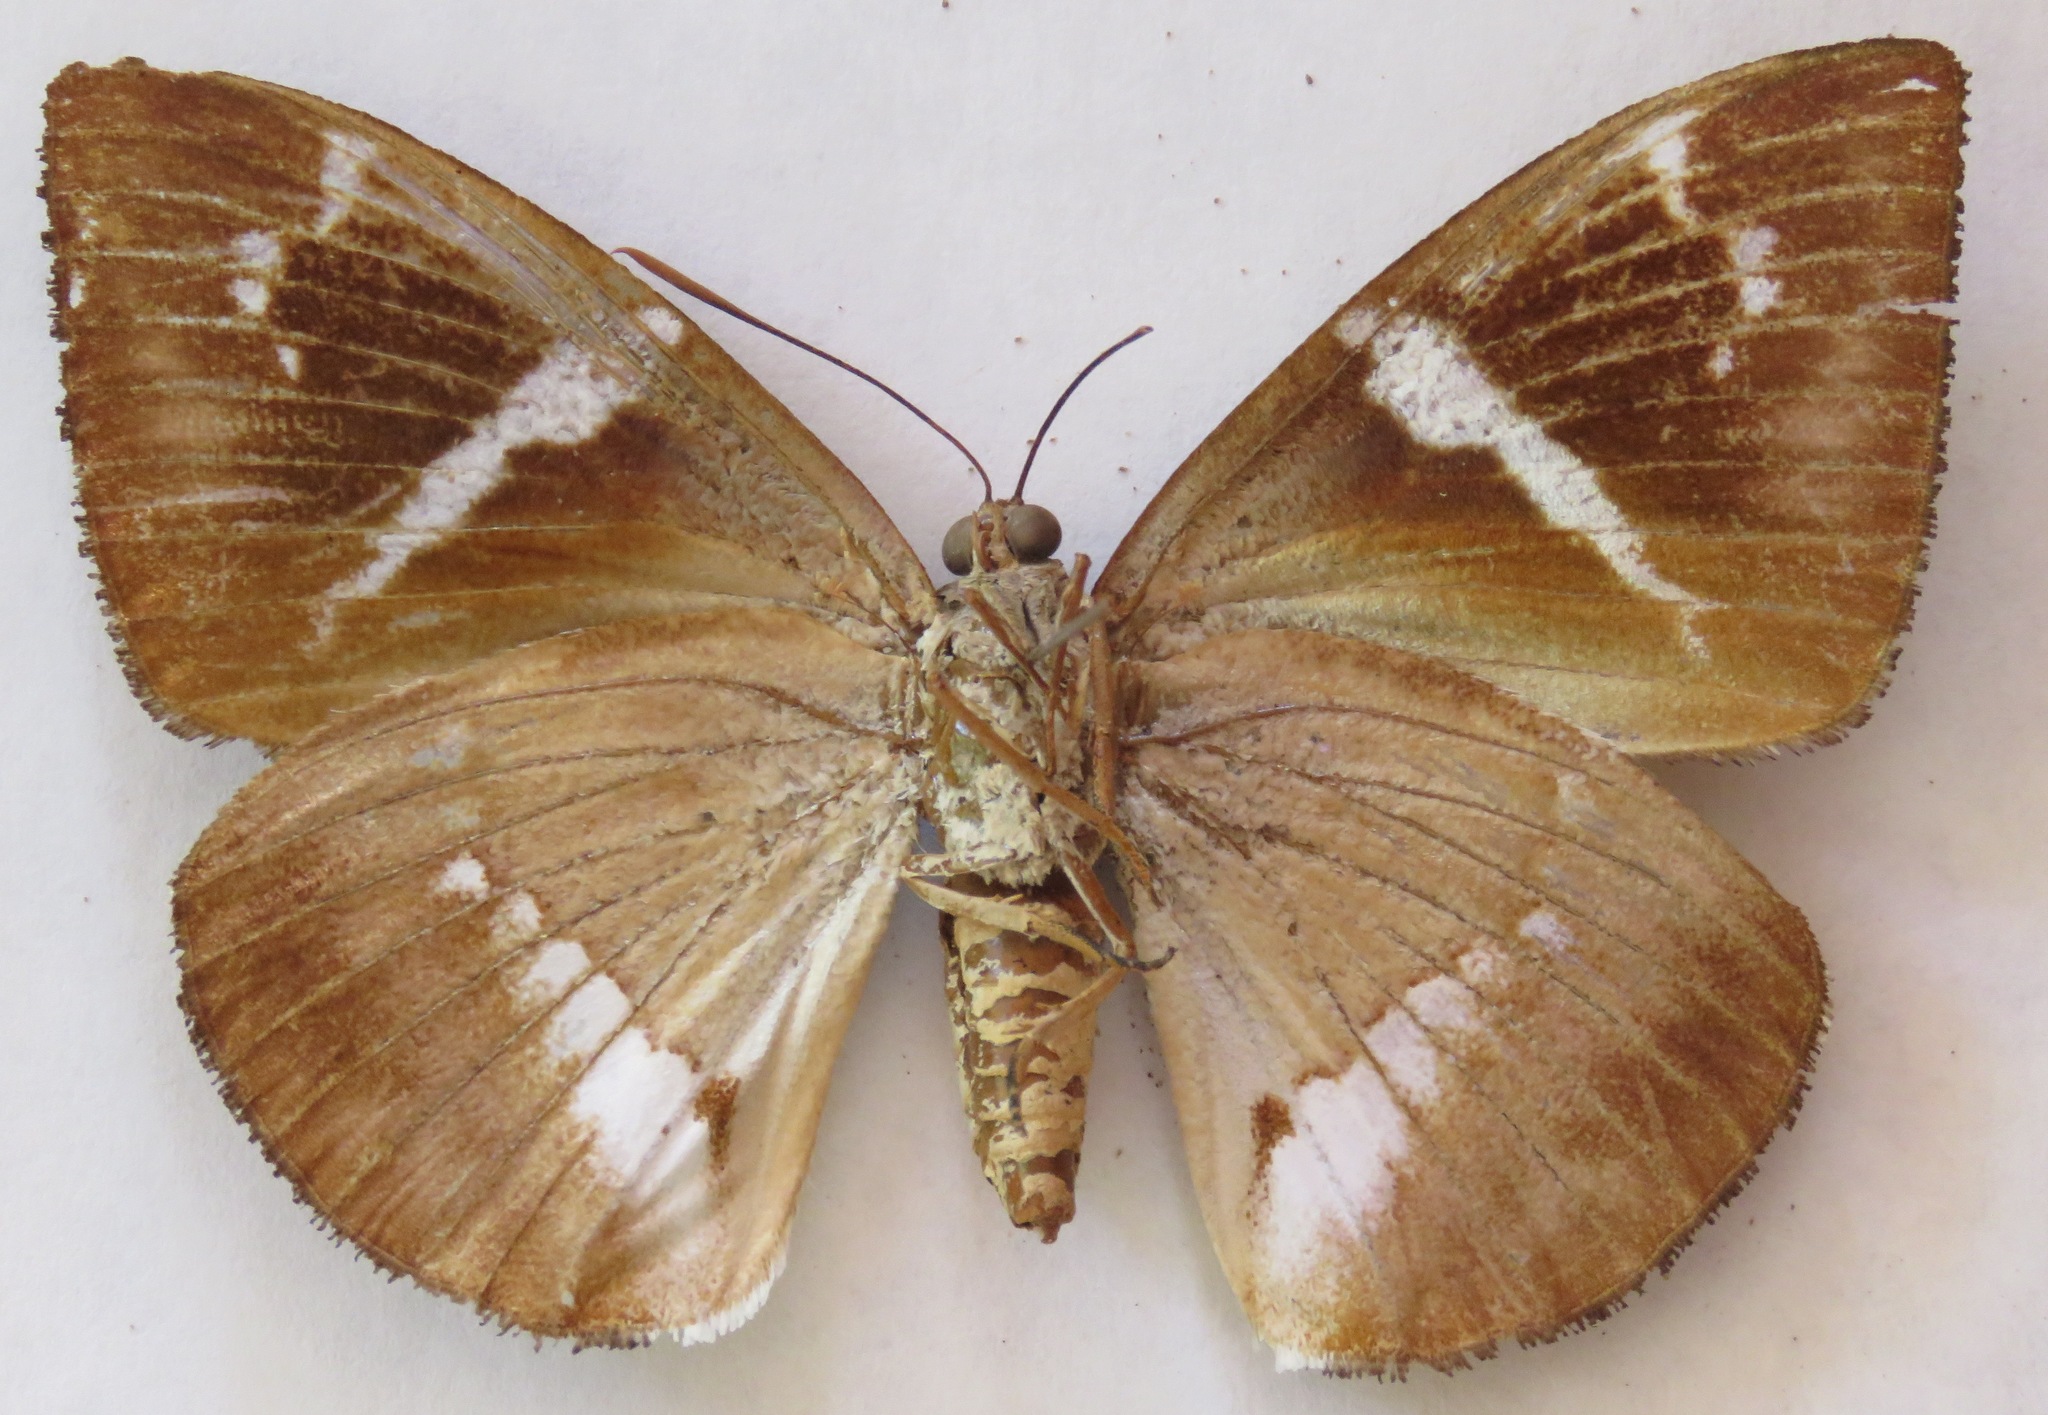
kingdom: Animalia
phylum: Arthropoda
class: Insecta
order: Lepidoptera
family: Castniidae
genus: Castniomera
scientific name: Castniomera atymnius
